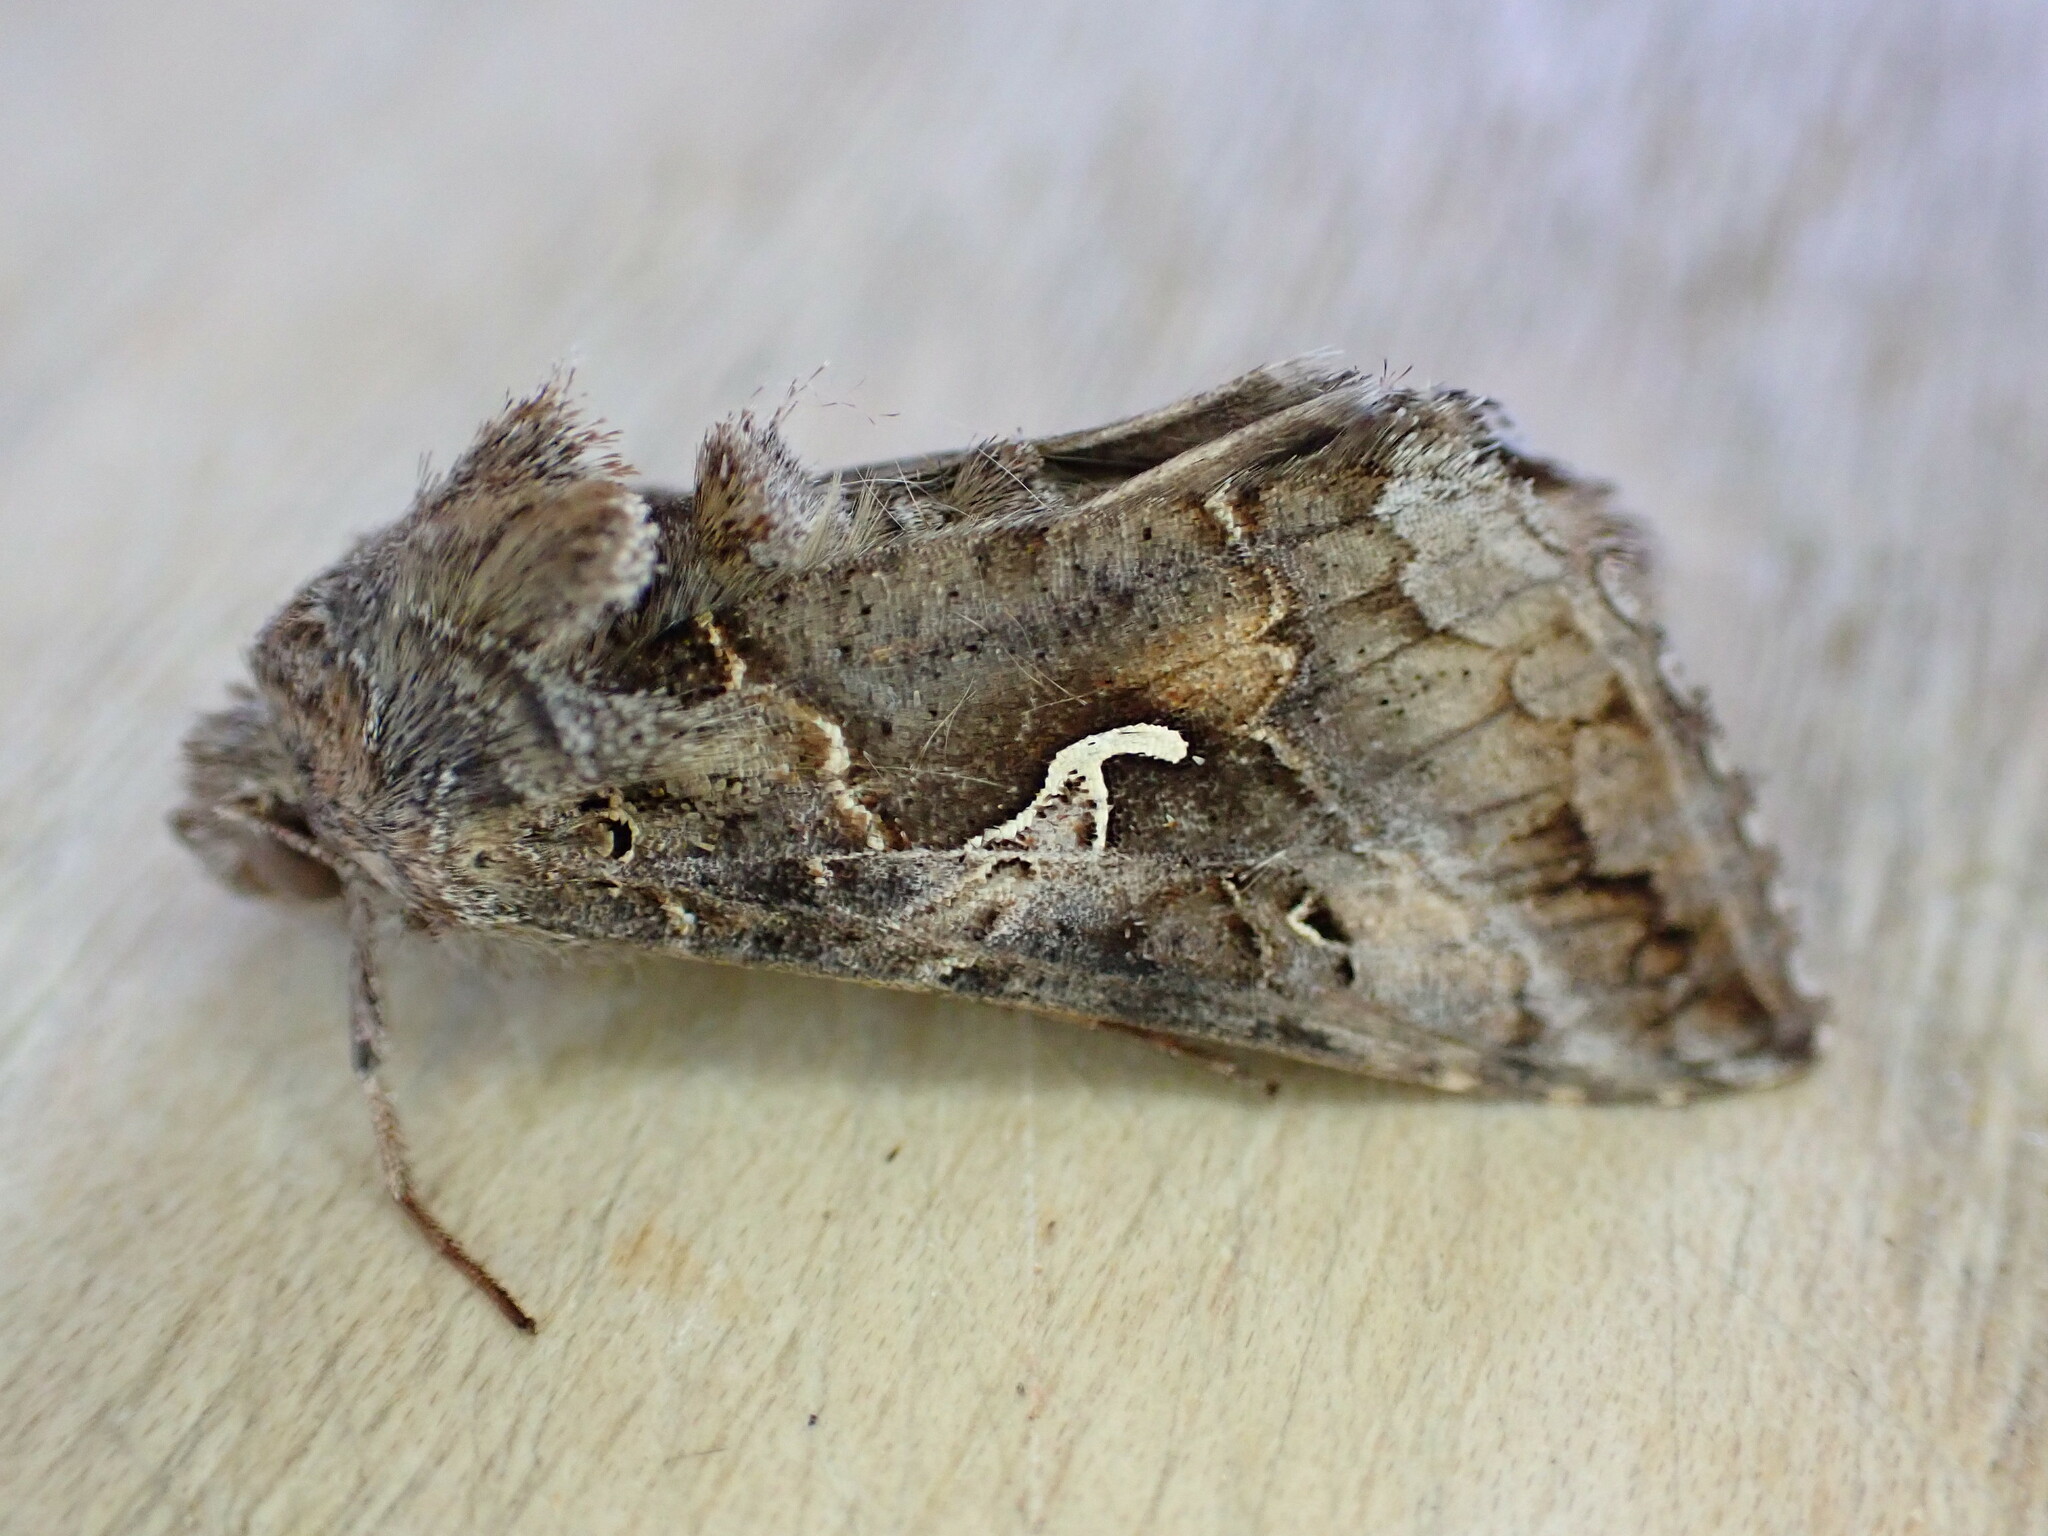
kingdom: Animalia
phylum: Arthropoda
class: Insecta
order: Lepidoptera
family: Noctuidae
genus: Autographa
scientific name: Autographa gamma
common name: Silver y
